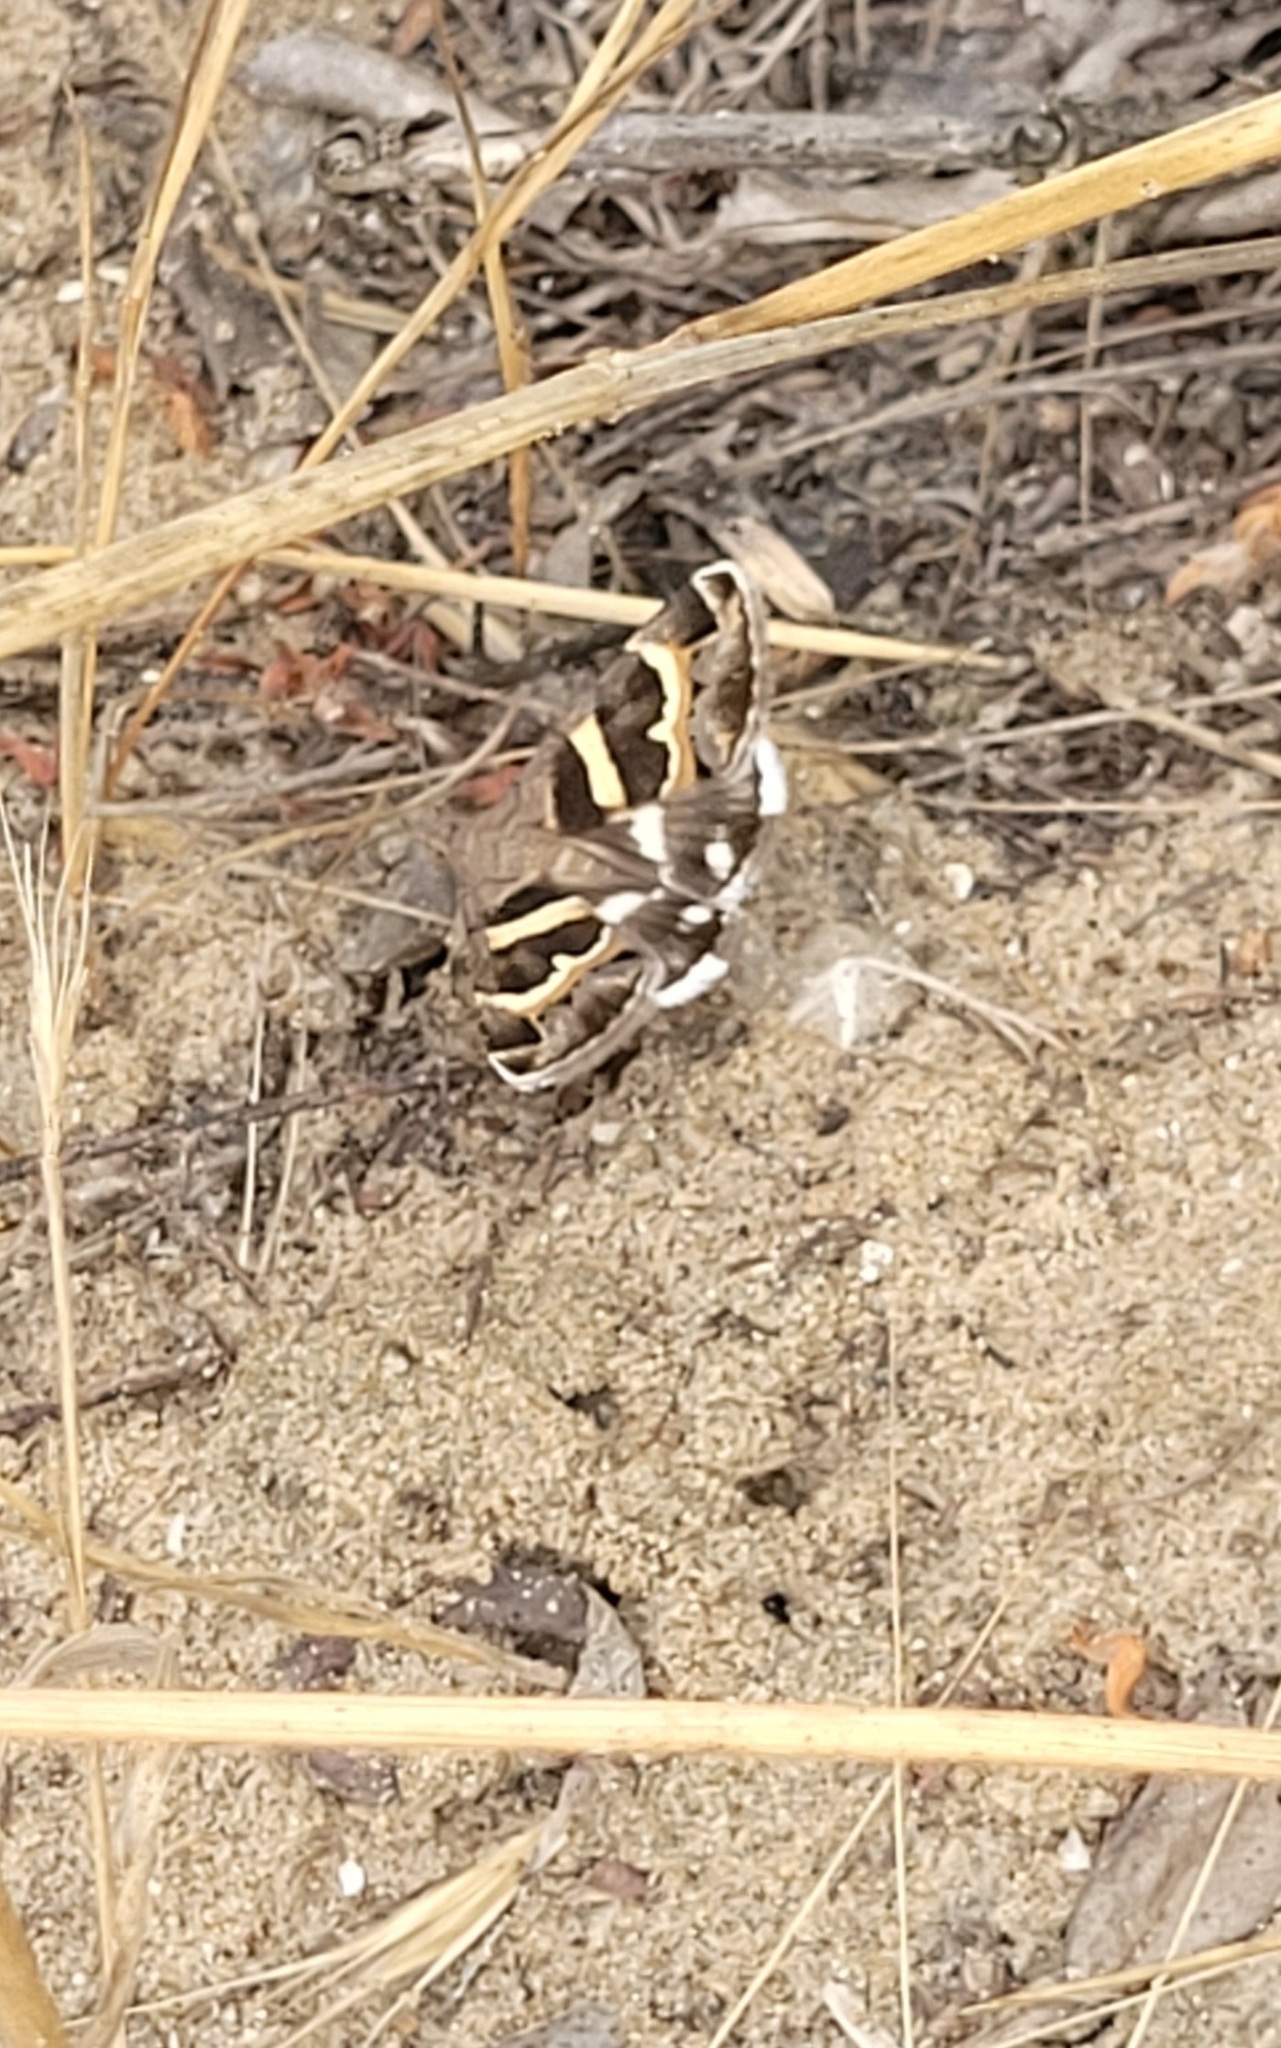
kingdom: Animalia
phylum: Arthropoda
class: Insecta
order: Lepidoptera
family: Erebidae
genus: Grammodes
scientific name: Grammodes stolida
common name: Geometrician
